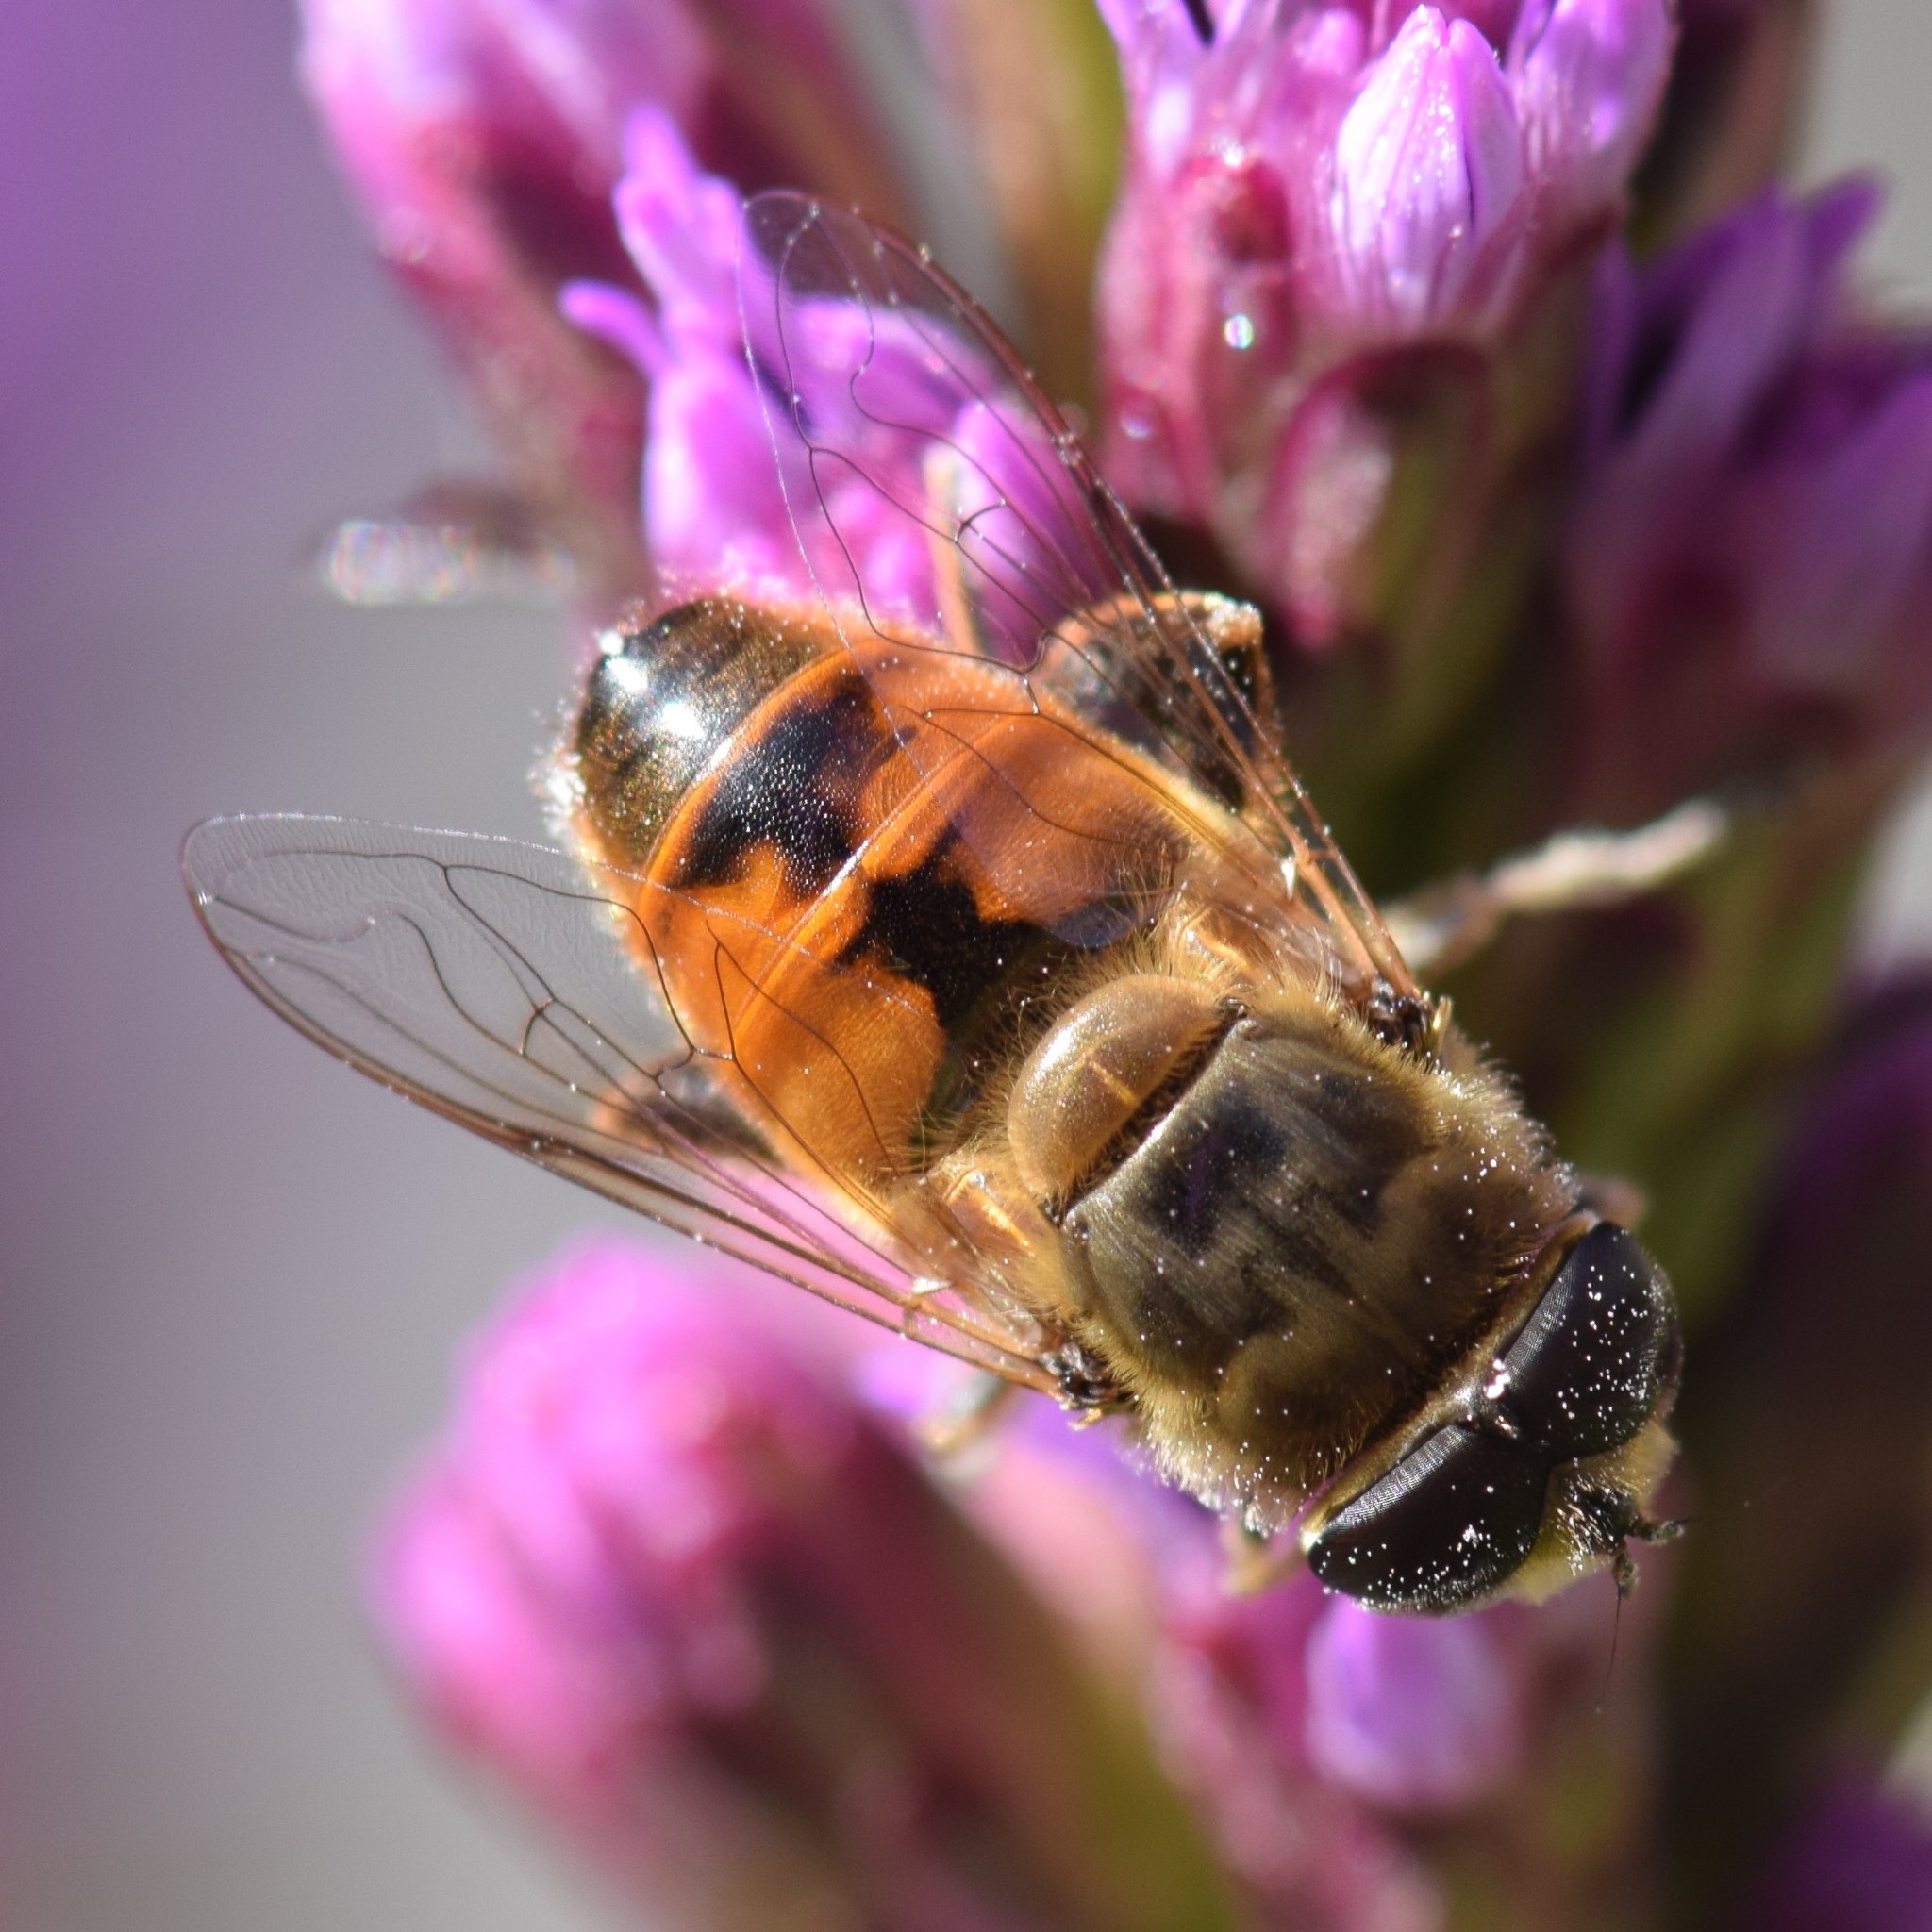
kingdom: Animalia
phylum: Arthropoda
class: Insecta
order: Diptera
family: Syrphidae
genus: Eristalis
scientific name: Eristalis tenax
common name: Drone fly
